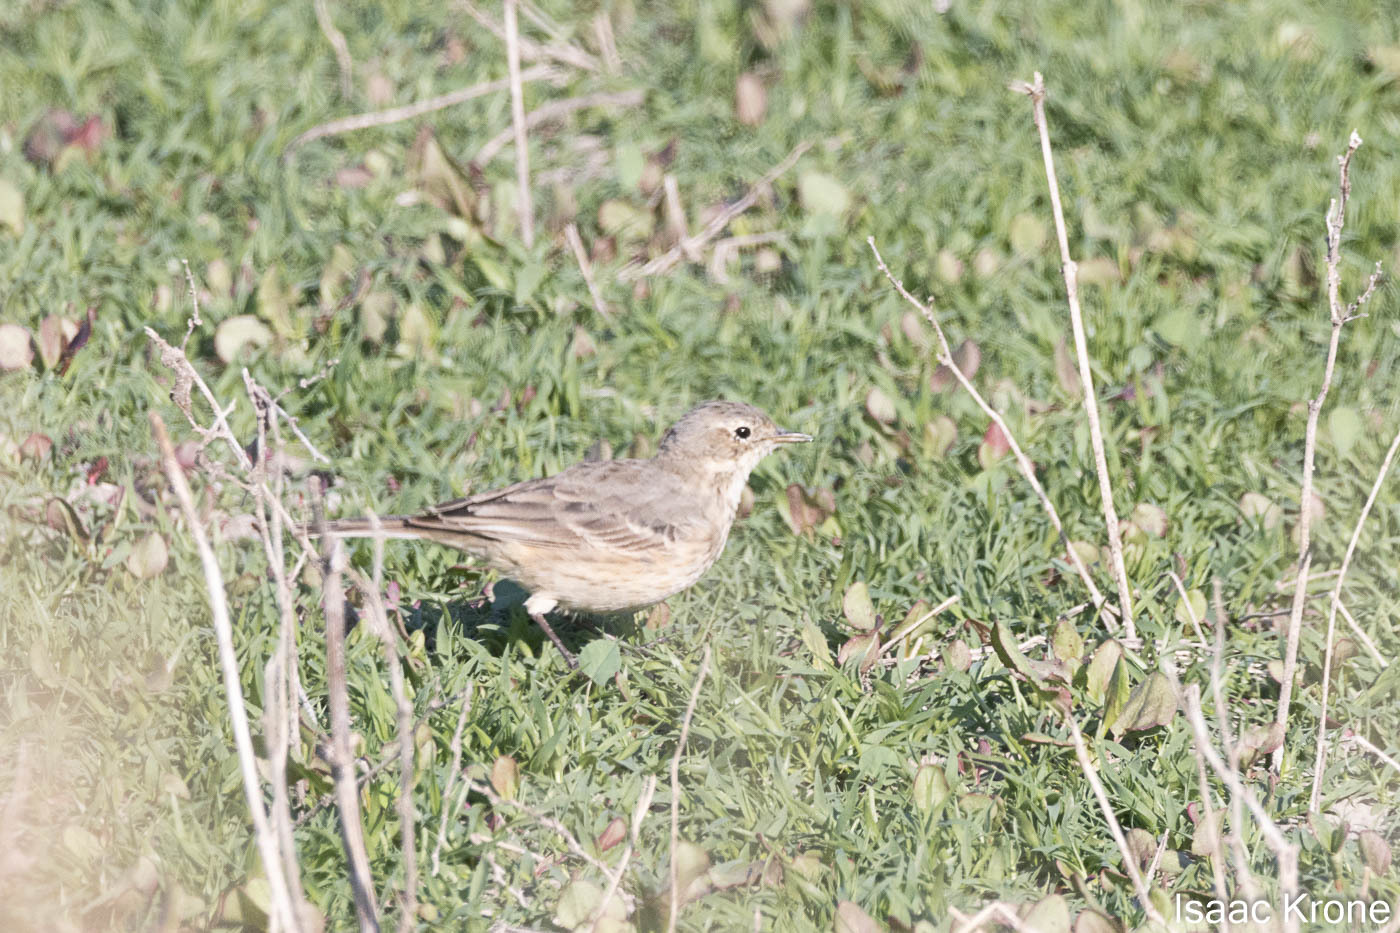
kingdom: Animalia
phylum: Chordata
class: Aves
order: Passeriformes
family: Motacillidae
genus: Anthus
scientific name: Anthus rubescens
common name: Buff-bellied pipit
